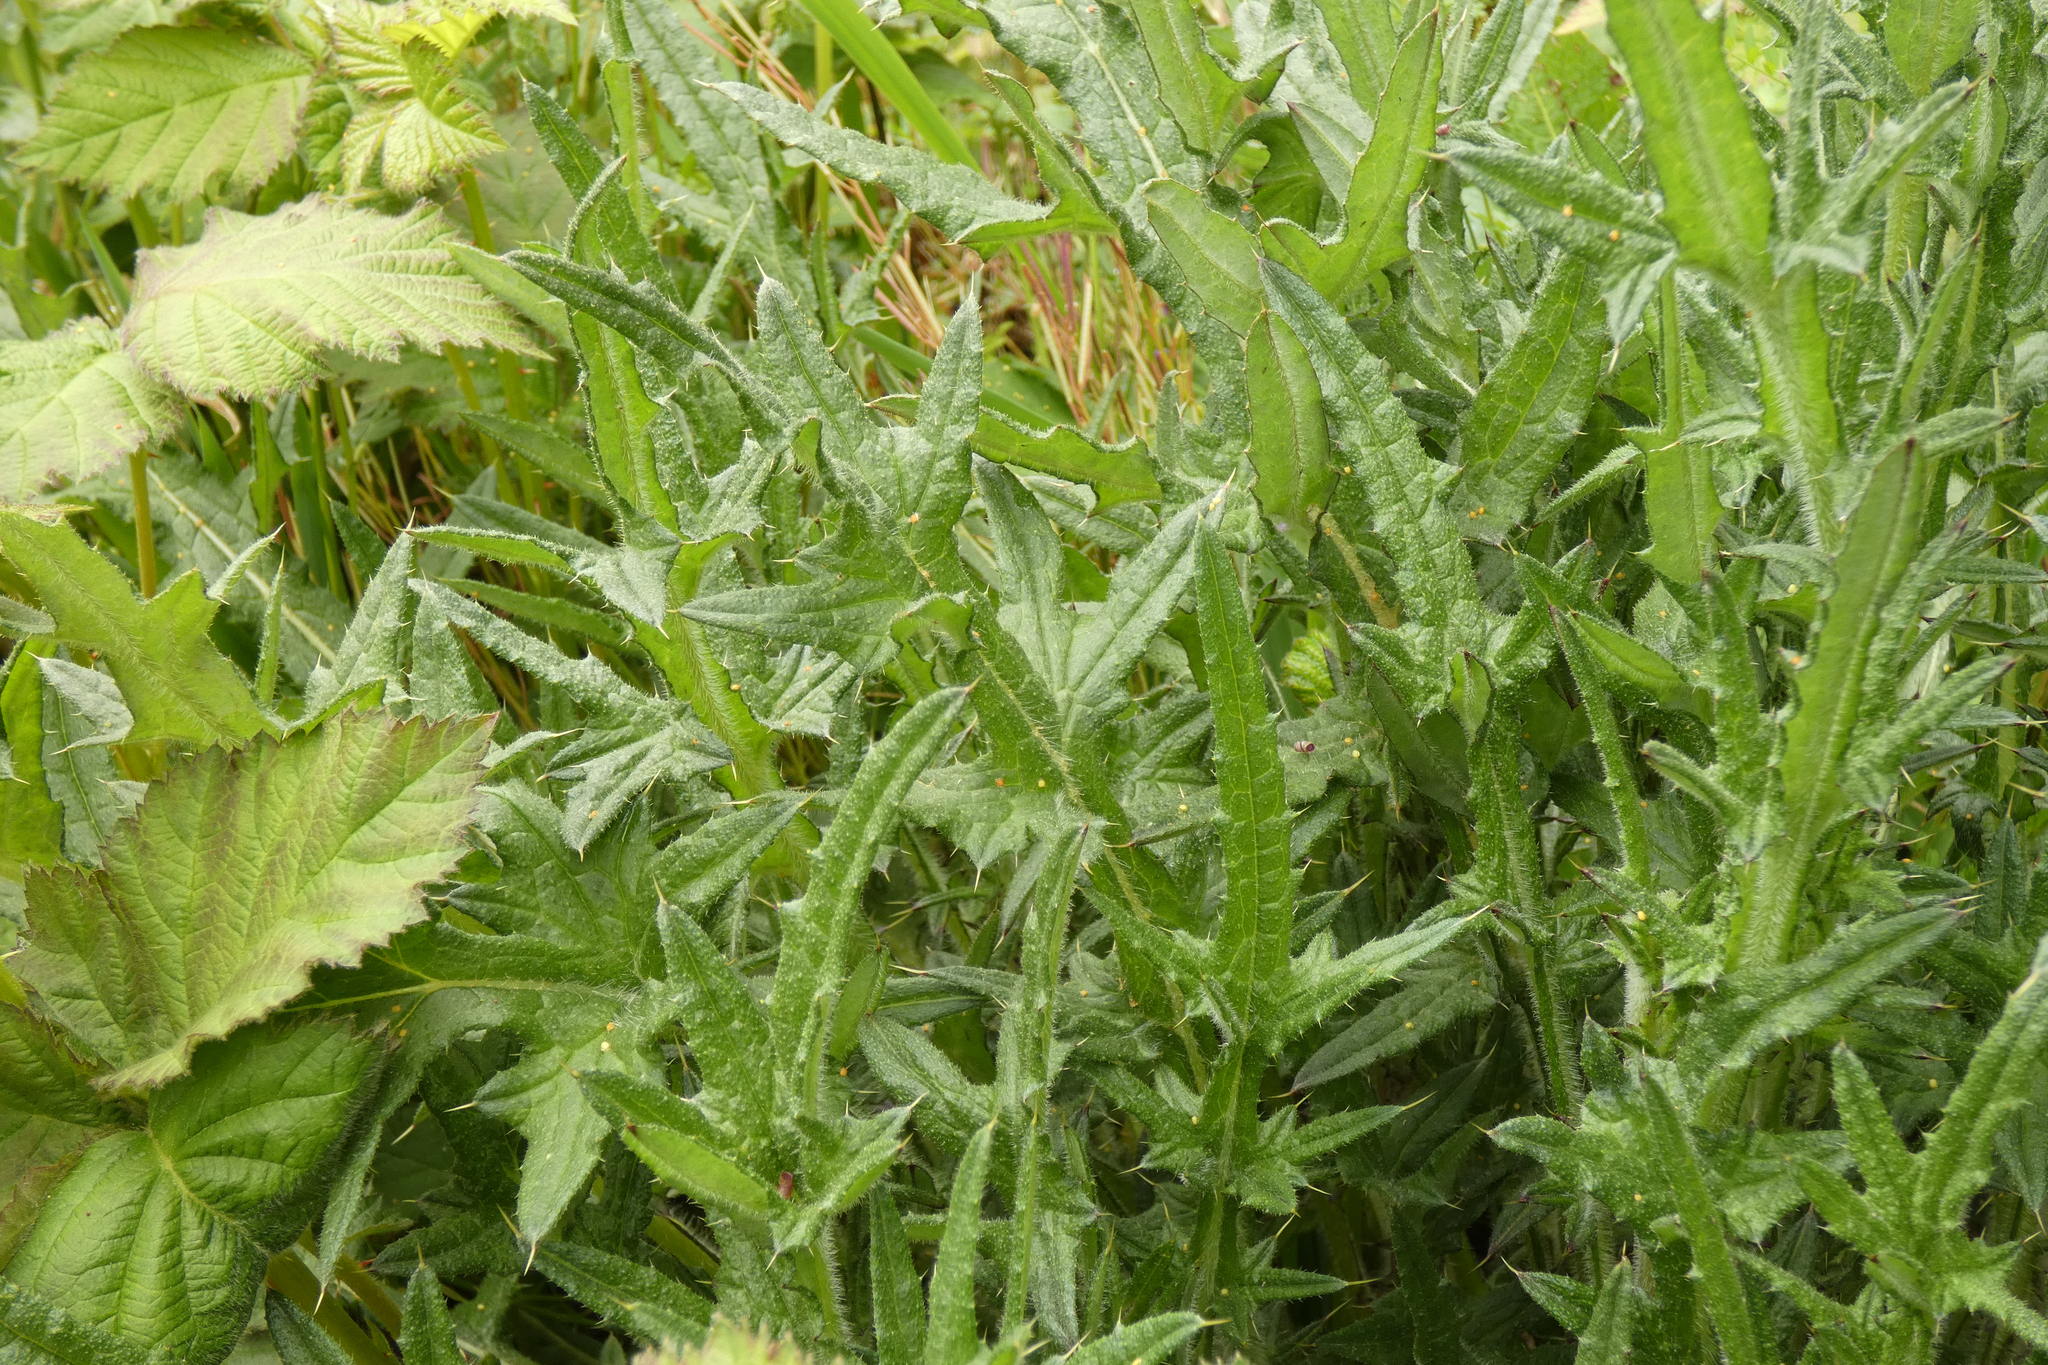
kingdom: Plantae
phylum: Tracheophyta
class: Magnoliopsida
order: Asterales
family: Asteraceae
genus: Cirsium
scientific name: Cirsium vulgare
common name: Bull thistle
